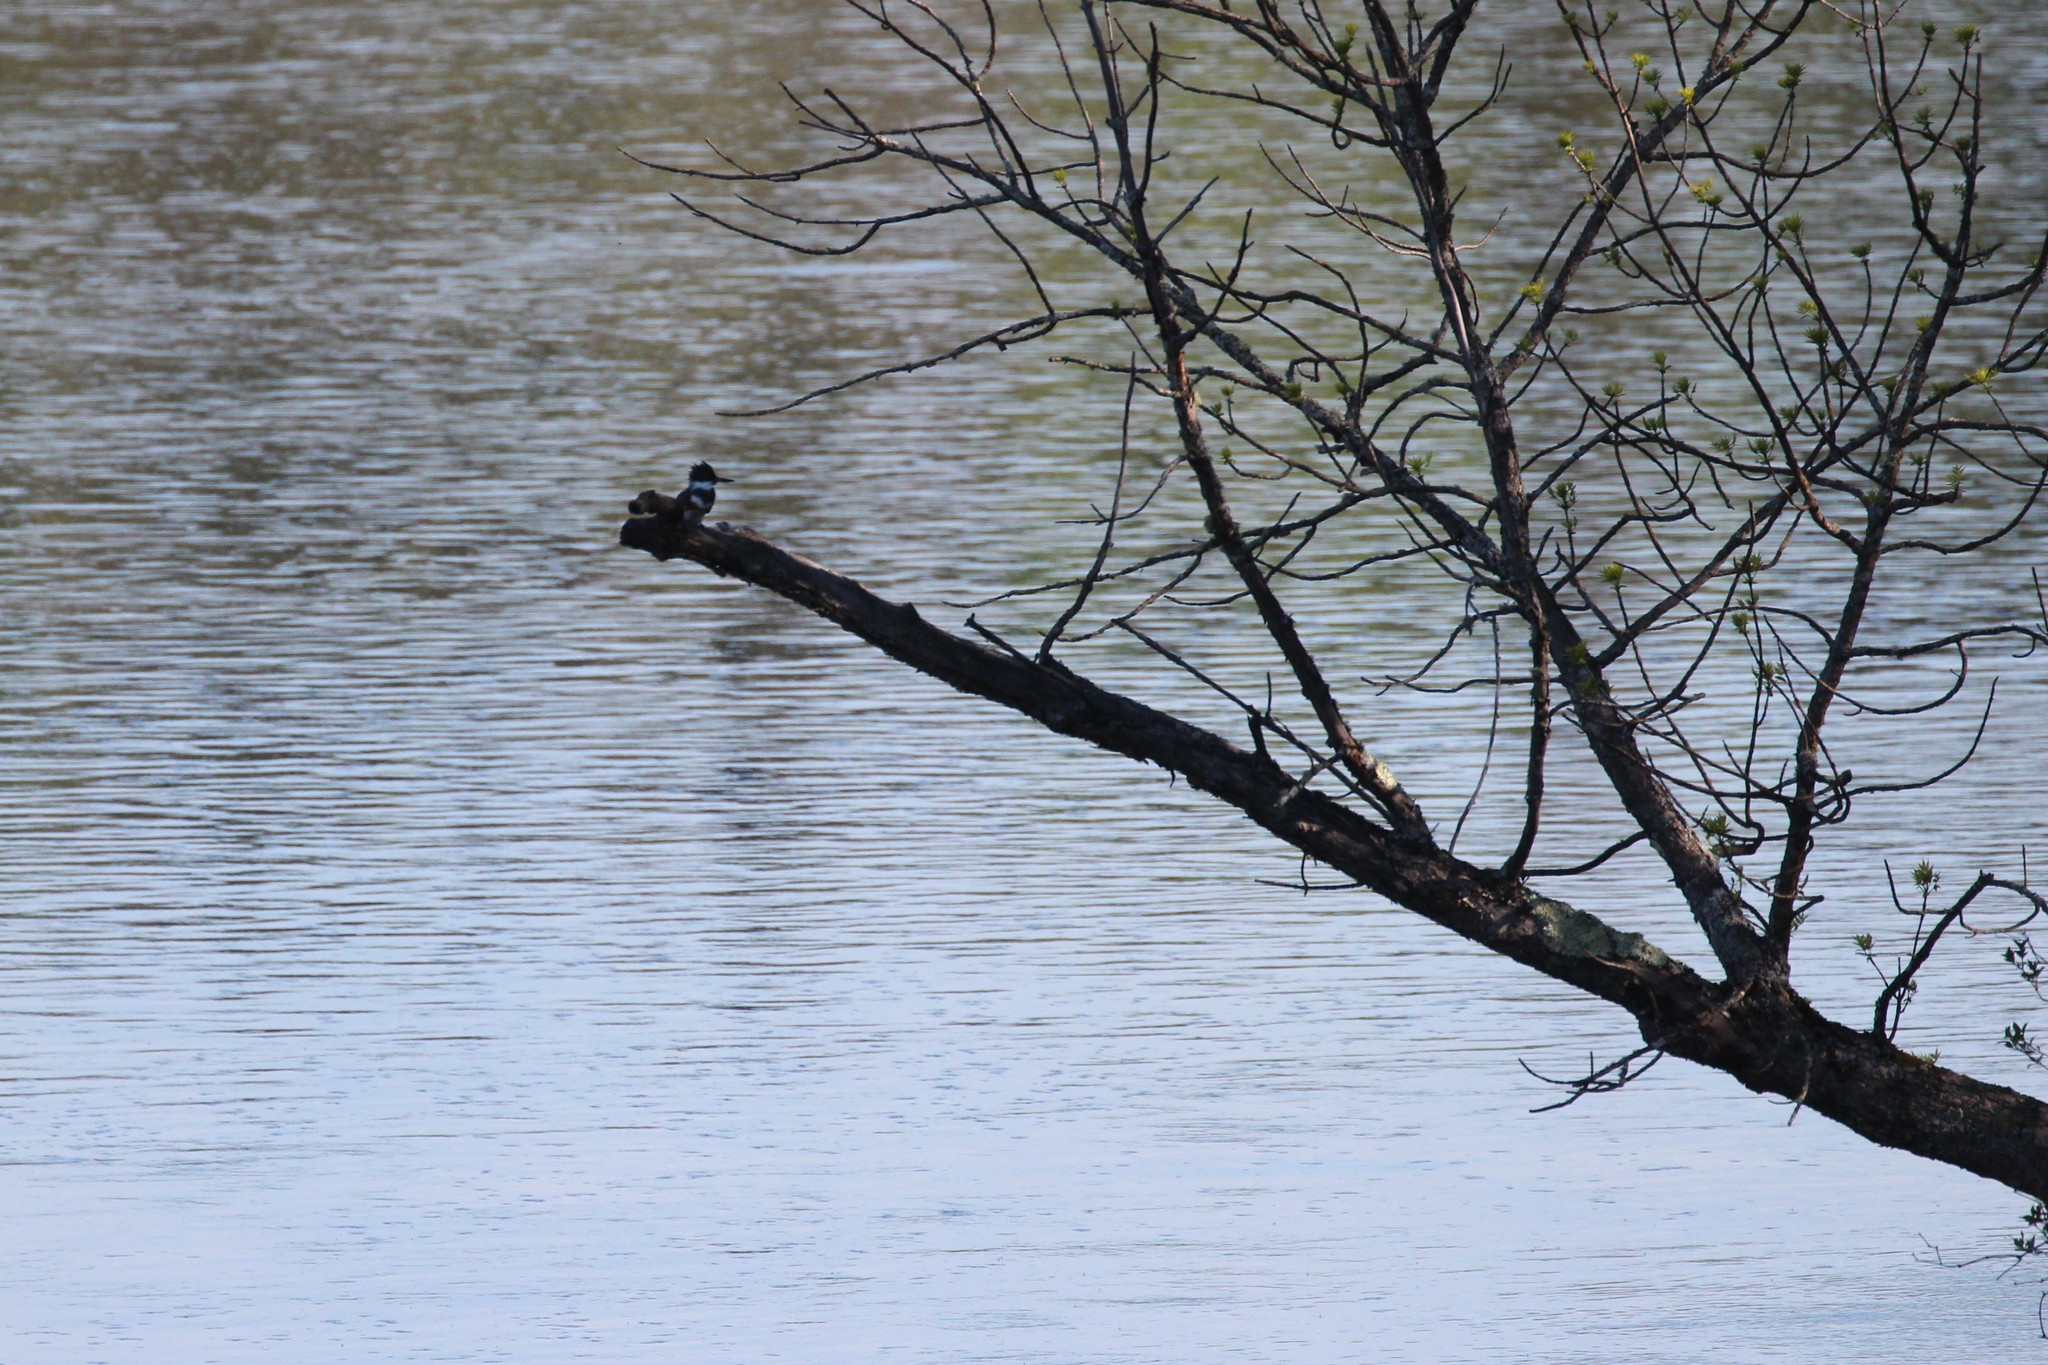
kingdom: Animalia
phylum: Chordata
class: Aves
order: Coraciiformes
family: Alcedinidae
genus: Megaceryle
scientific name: Megaceryle alcyon
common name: Belted kingfisher
